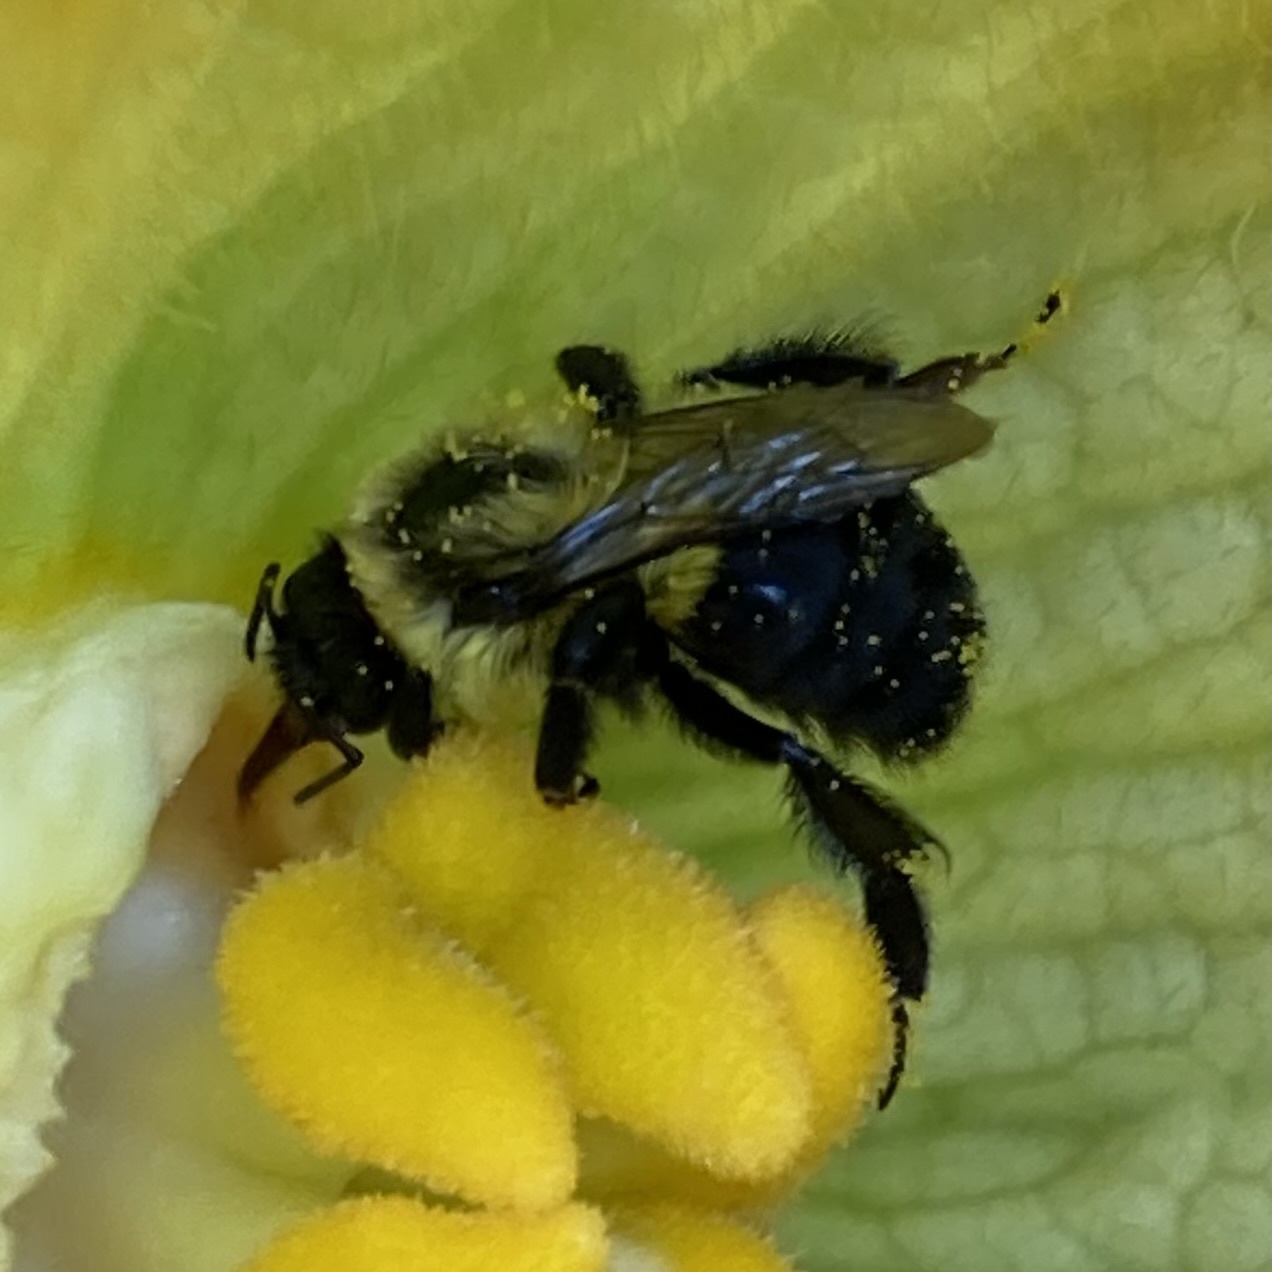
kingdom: Animalia
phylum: Arthropoda
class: Insecta
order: Hymenoptera
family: Apidae
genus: Bombus
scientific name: Bombus impatiens
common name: Common eastern bumble bee
